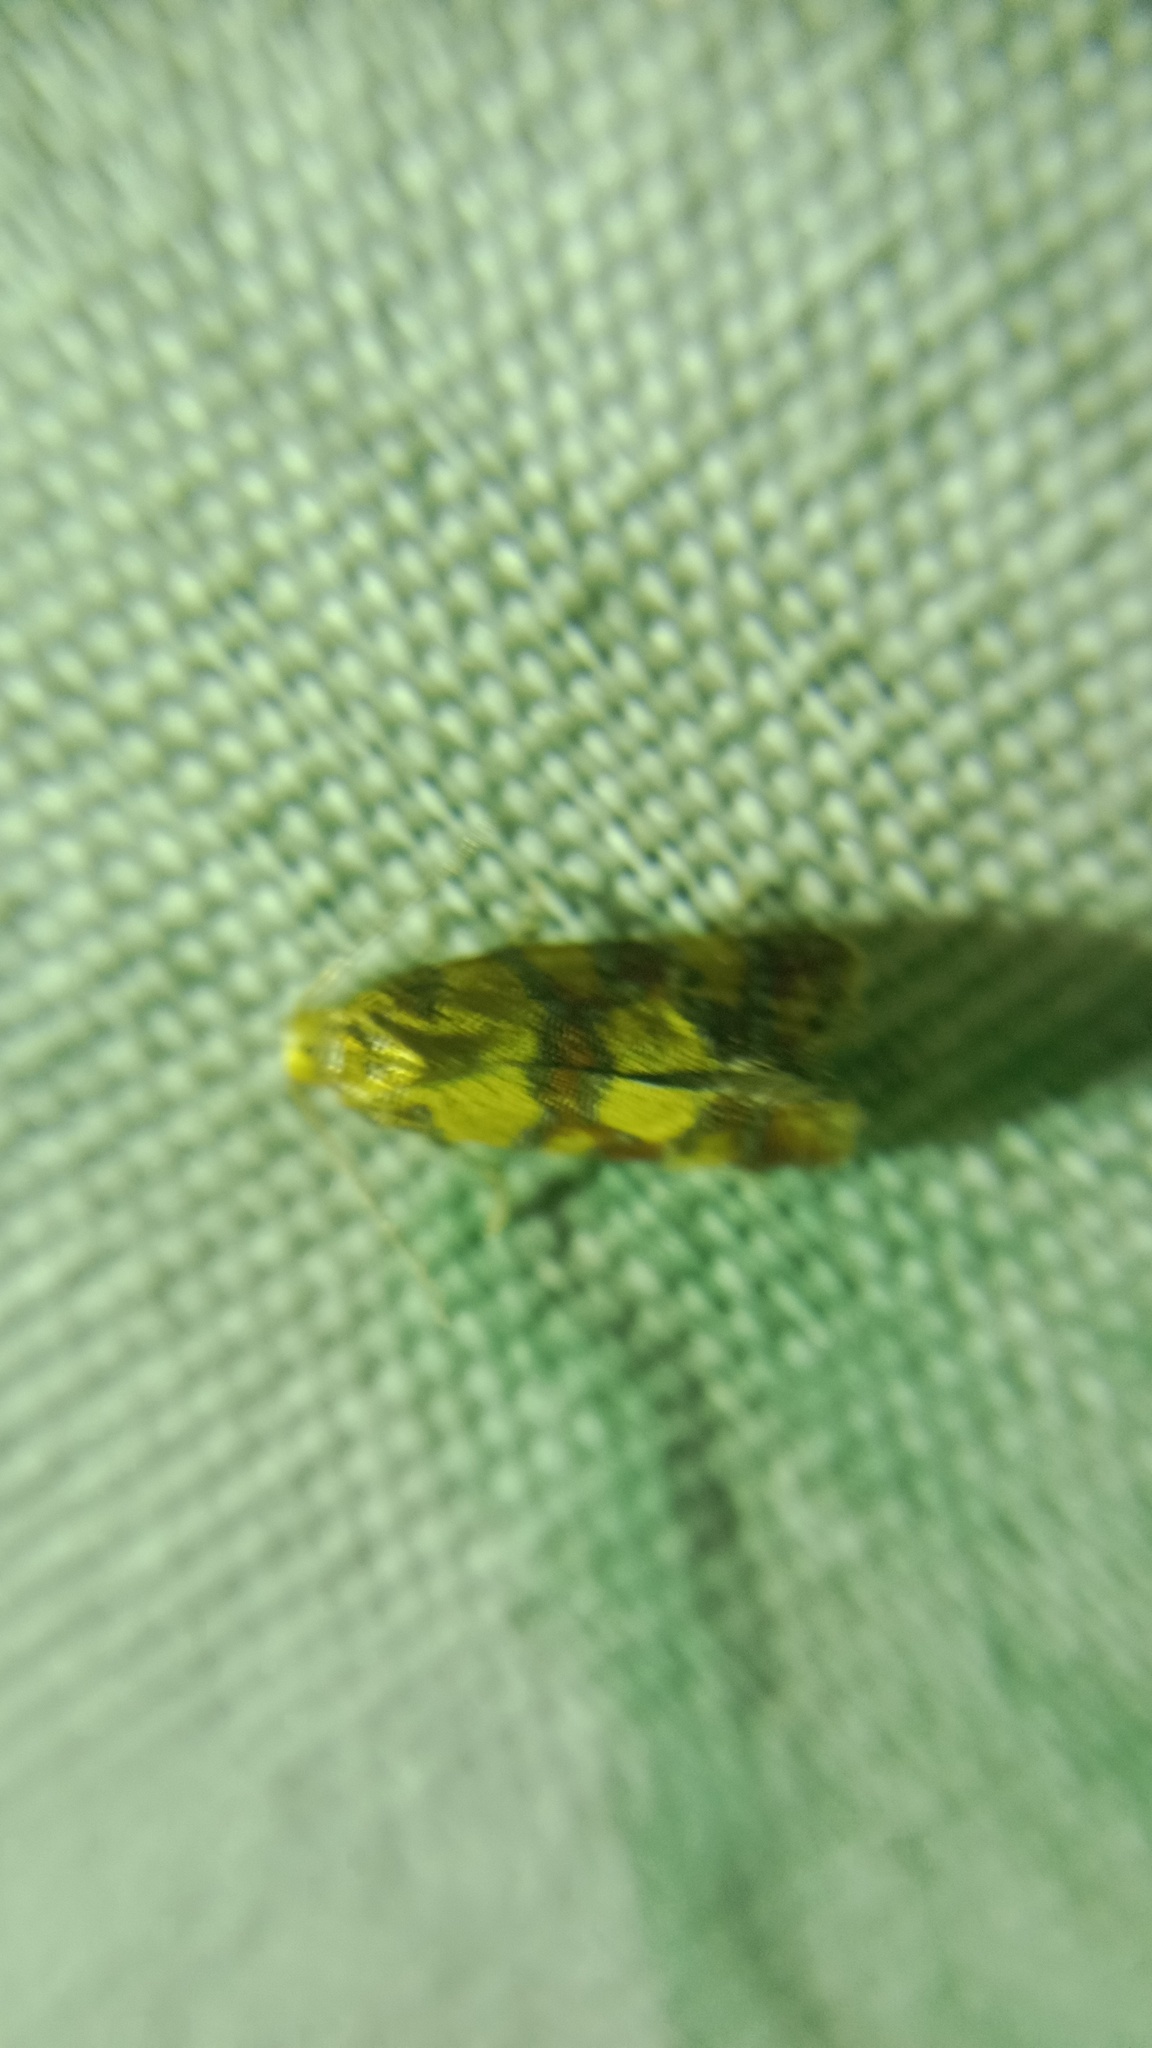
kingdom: Animalia
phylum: Arthropoda
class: Insecta
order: Lepidoptera
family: Tortricidae
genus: Aethes
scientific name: Aethes tesserana
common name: Downland conch
